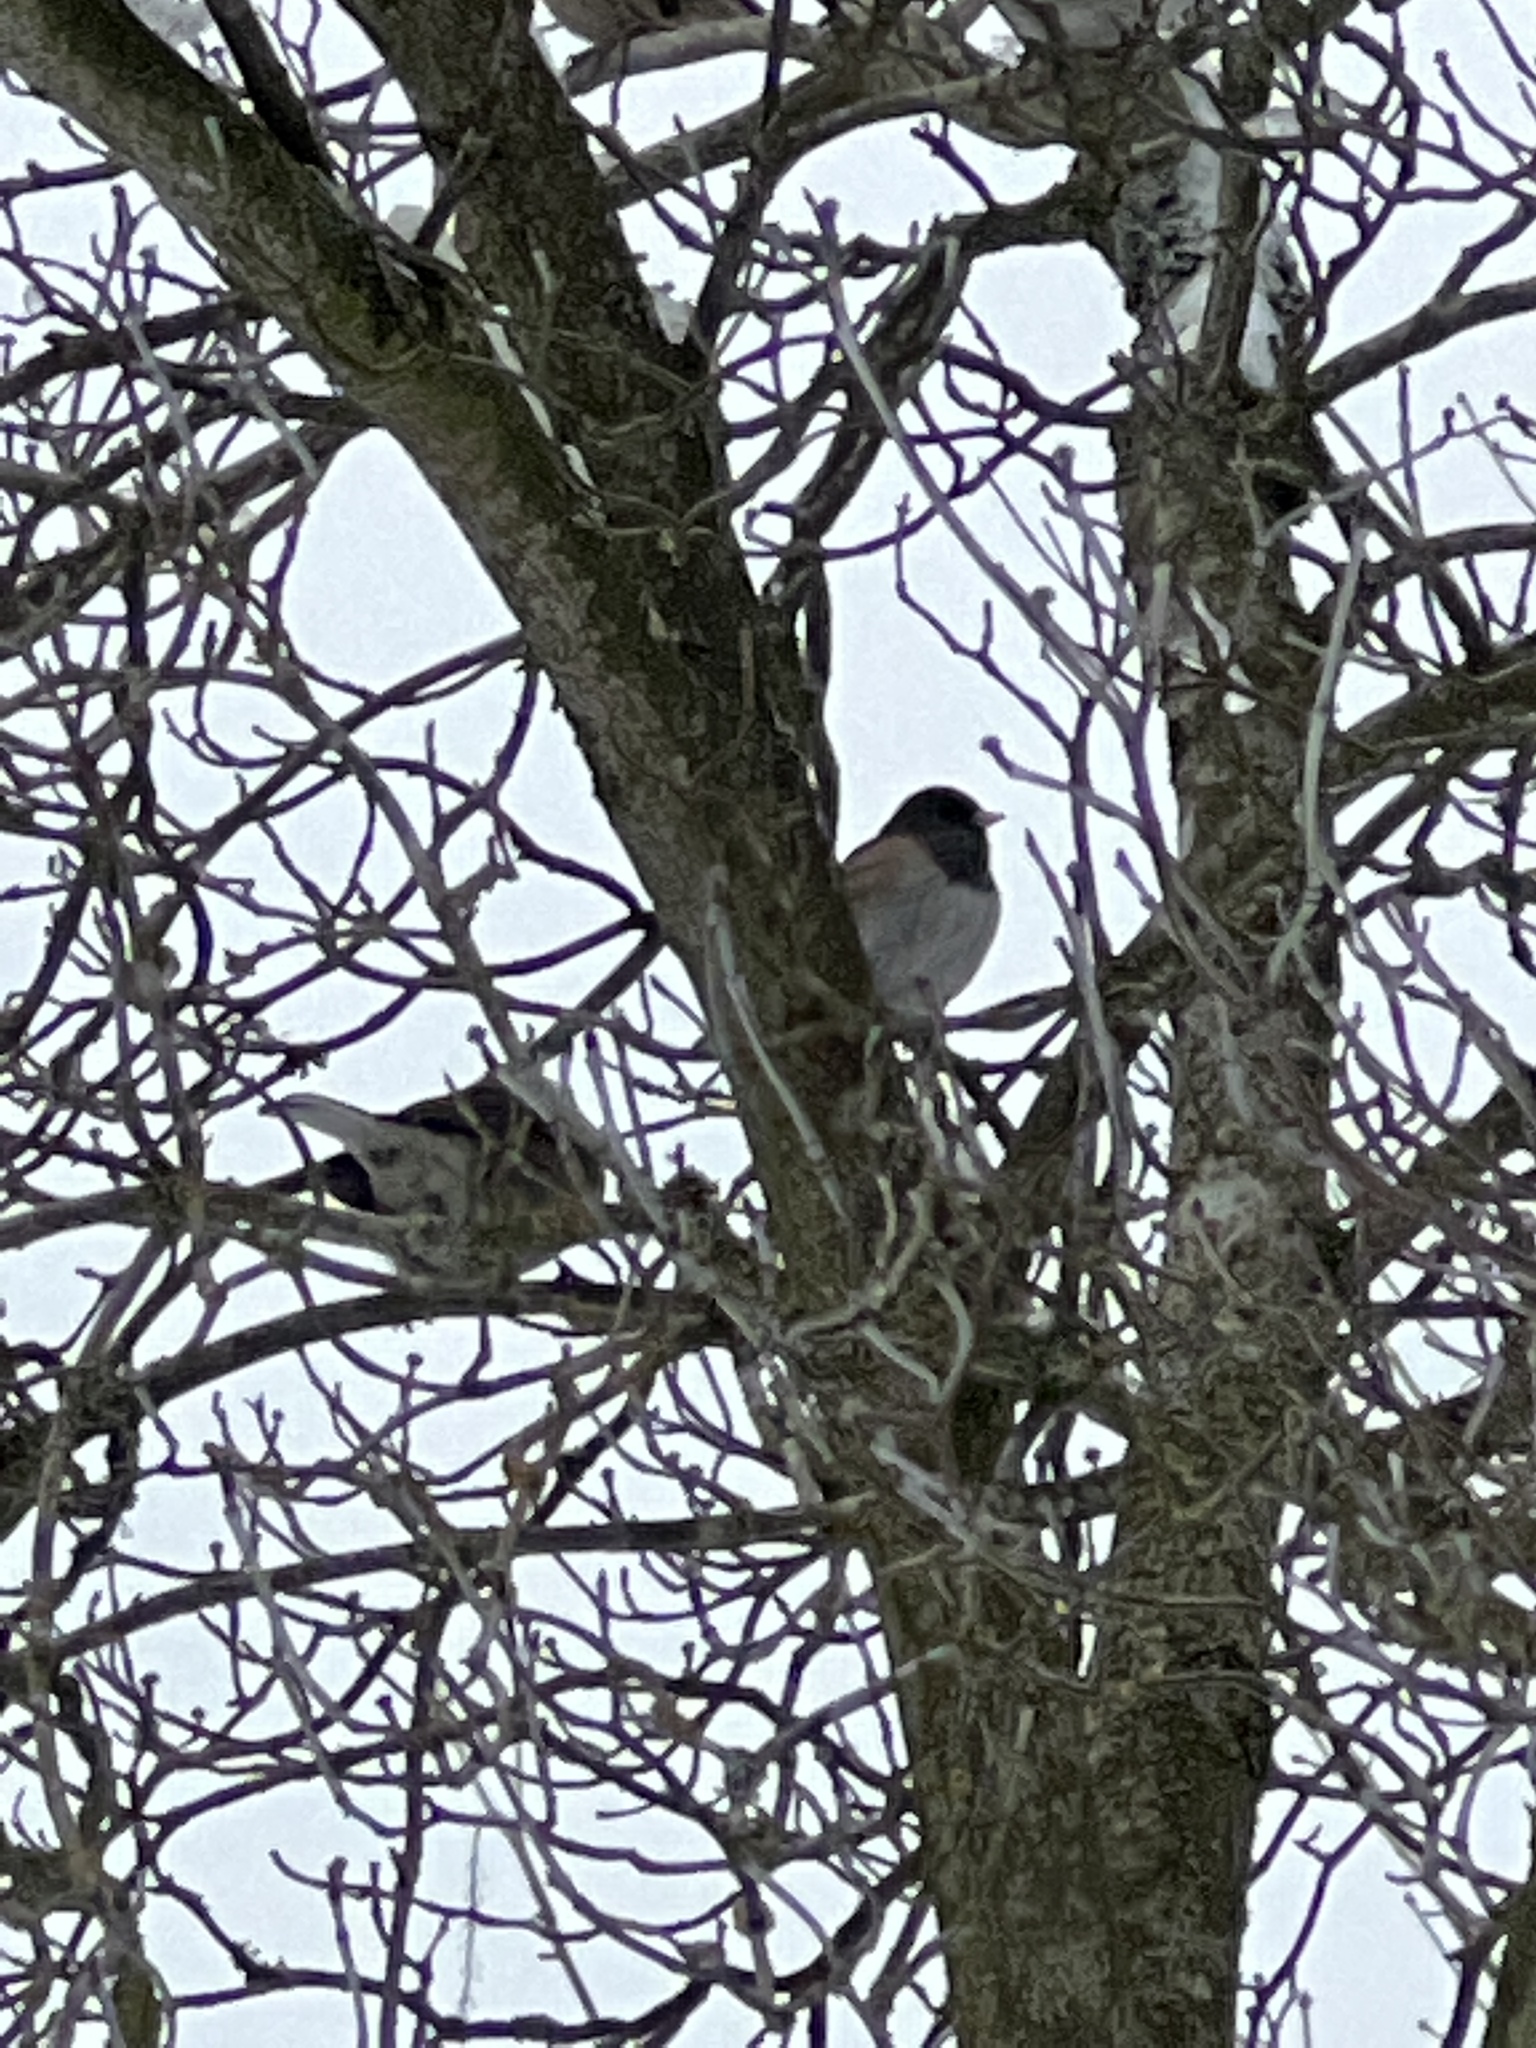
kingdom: Animalia
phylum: Chordata
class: Aves
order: Passeriformes
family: Passerellidae
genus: Junco
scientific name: Junco hyemalis
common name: Dark-eyed junco
